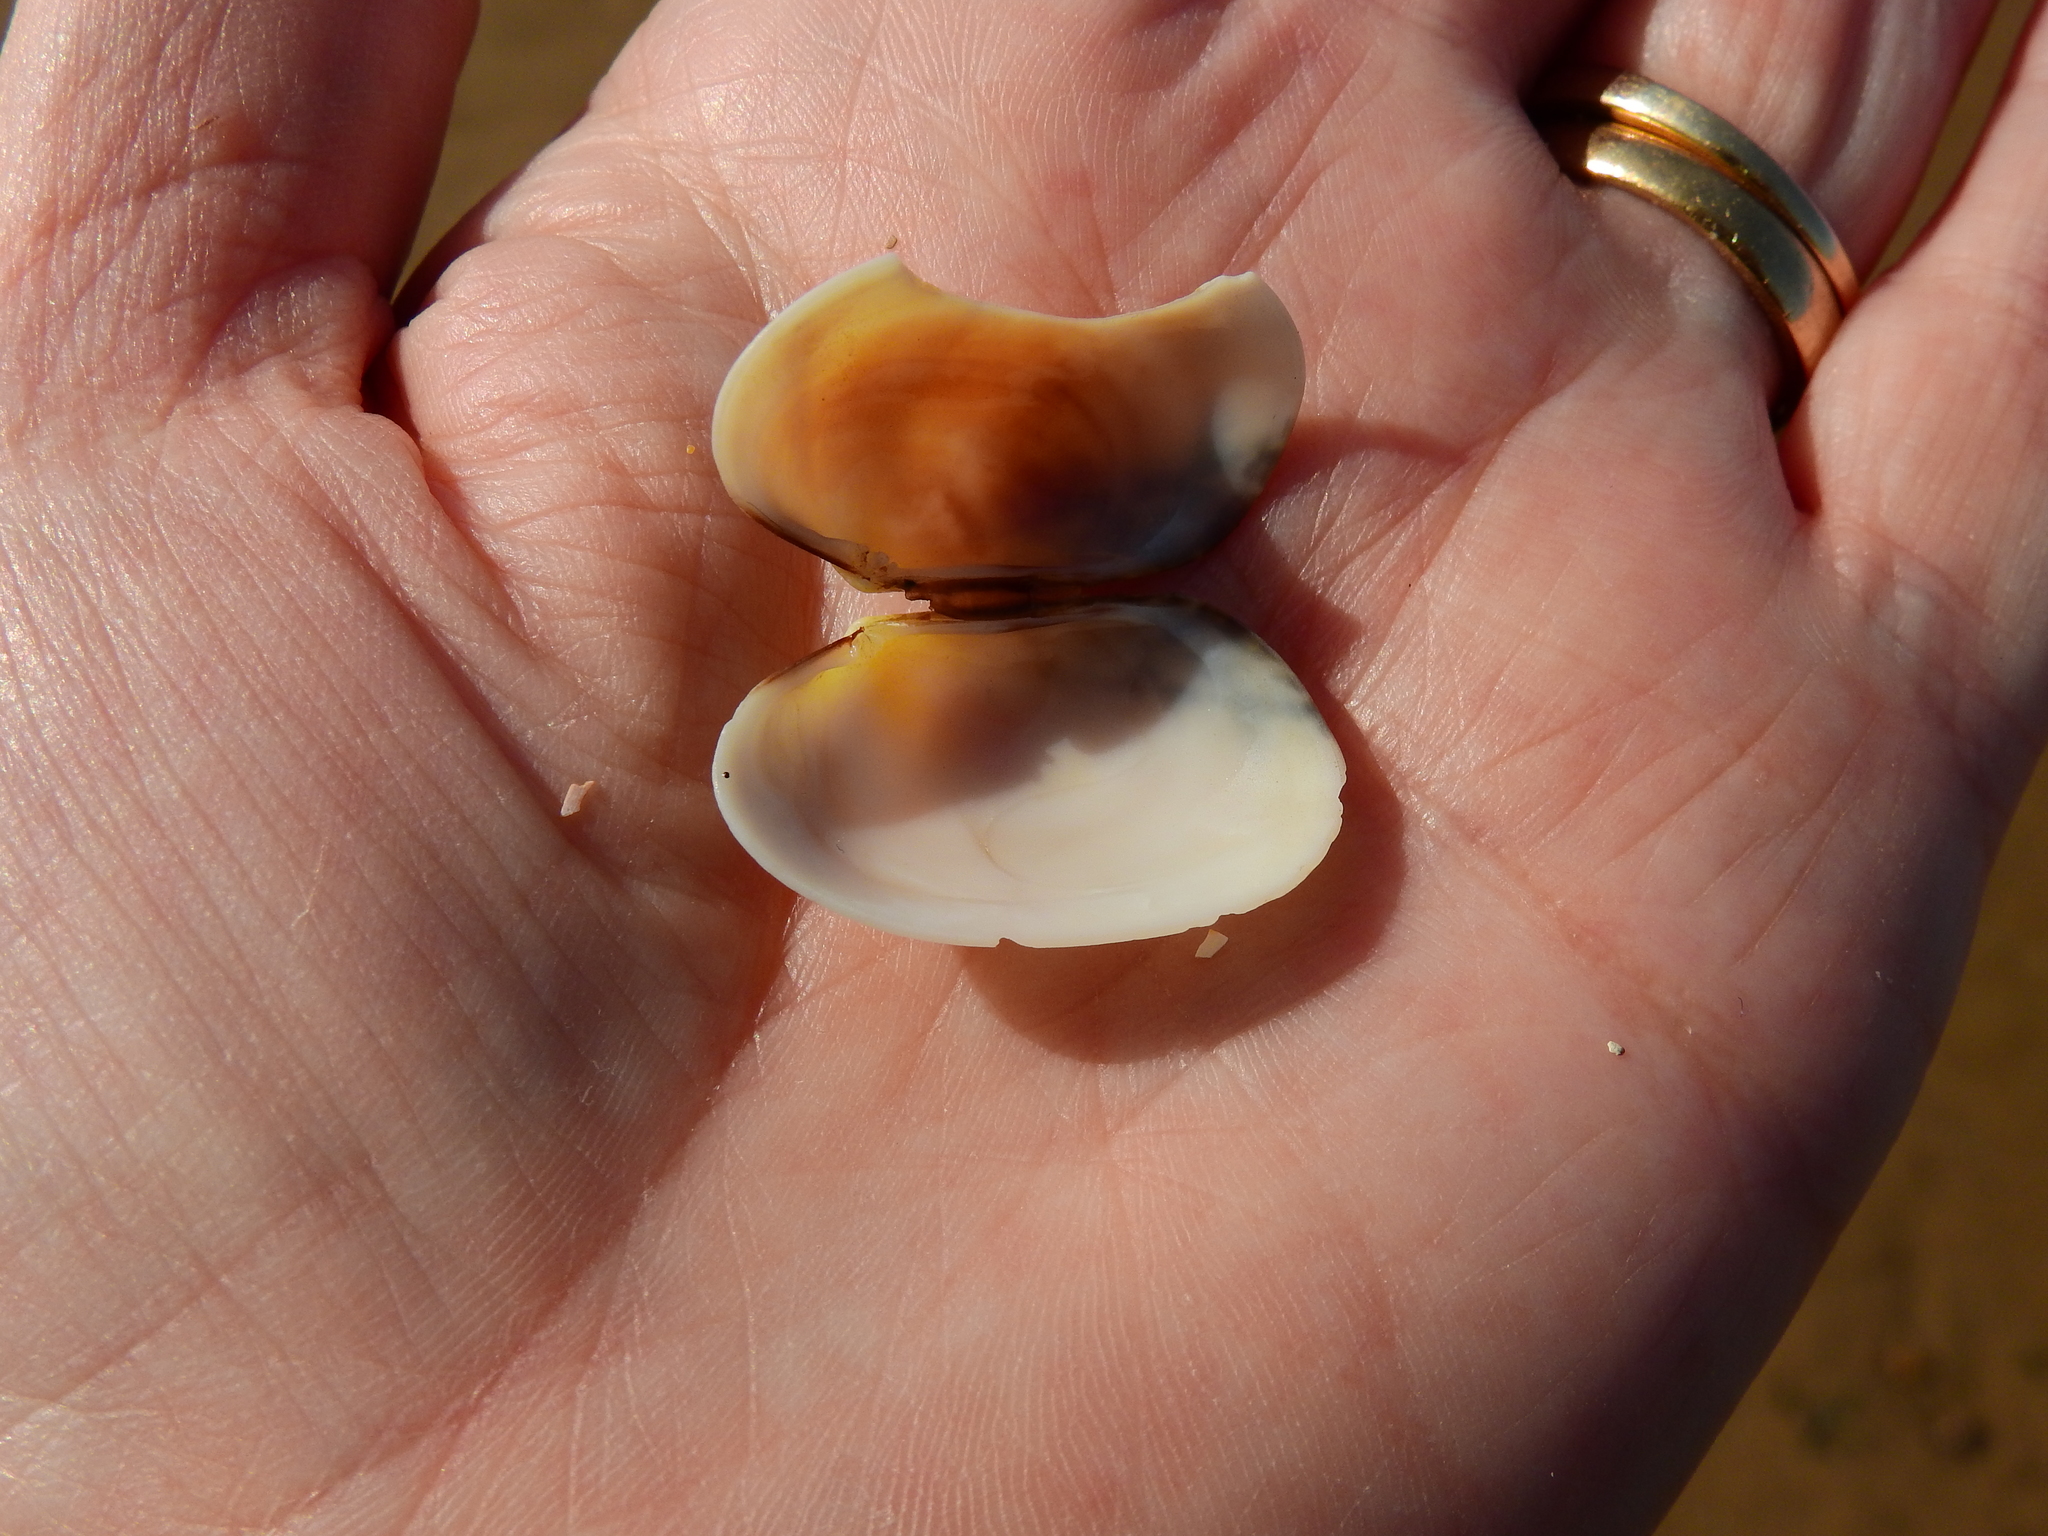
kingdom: Animalia
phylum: Mollusca
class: Bivalvia
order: Venerida
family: Veneridae
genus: Venerupis
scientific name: Venerupis corrugata
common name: Pullet carpet shell
